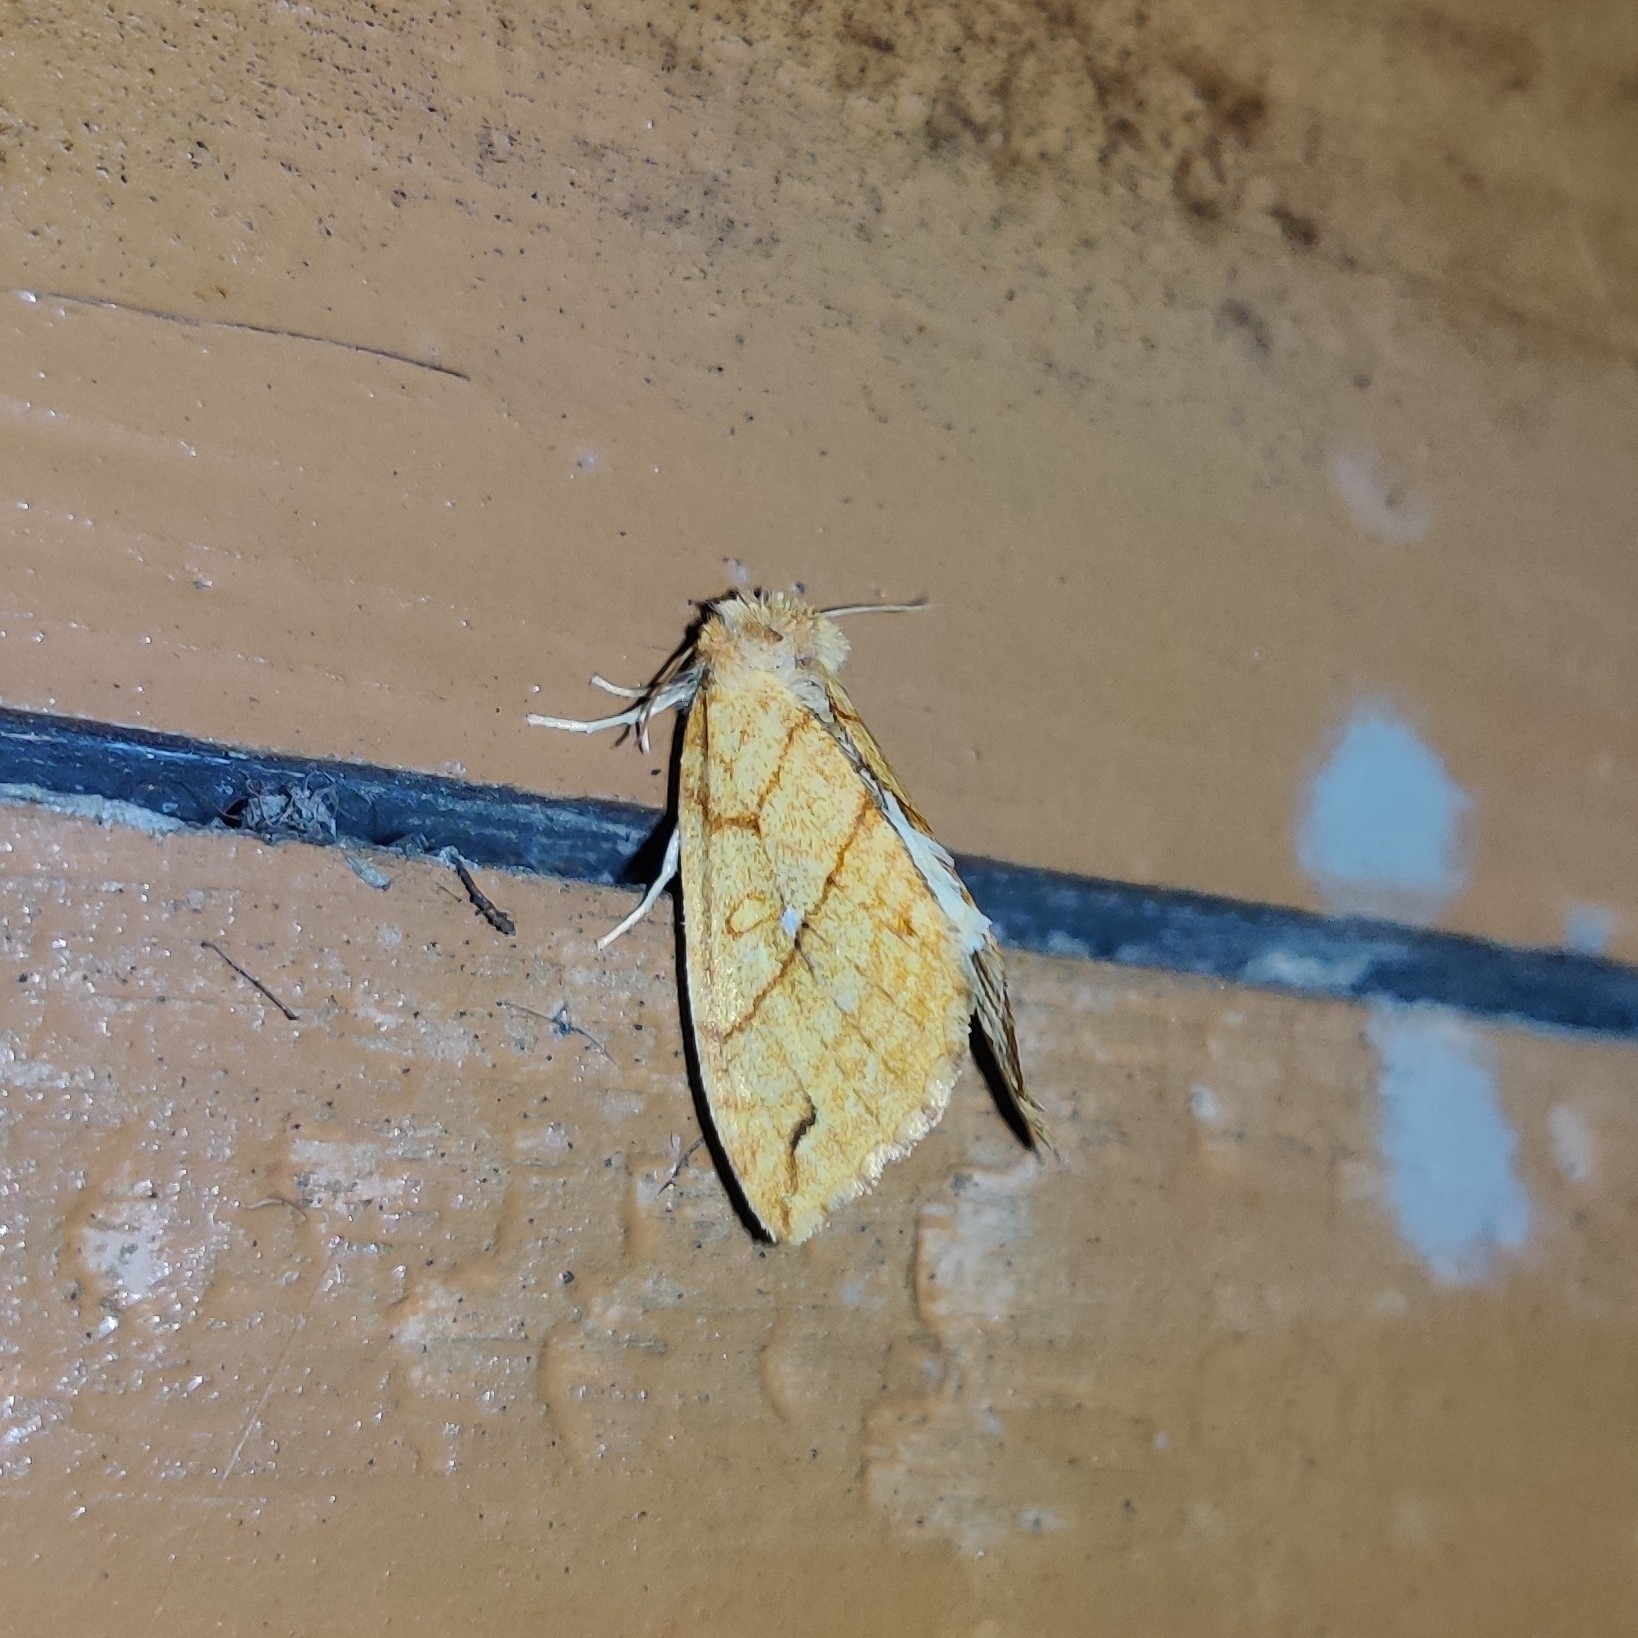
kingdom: Animalia
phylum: Arthropoda
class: Insecta
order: Lepidoptera
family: Noctuidae
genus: Xanthia
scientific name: Xanthia rectilineata
